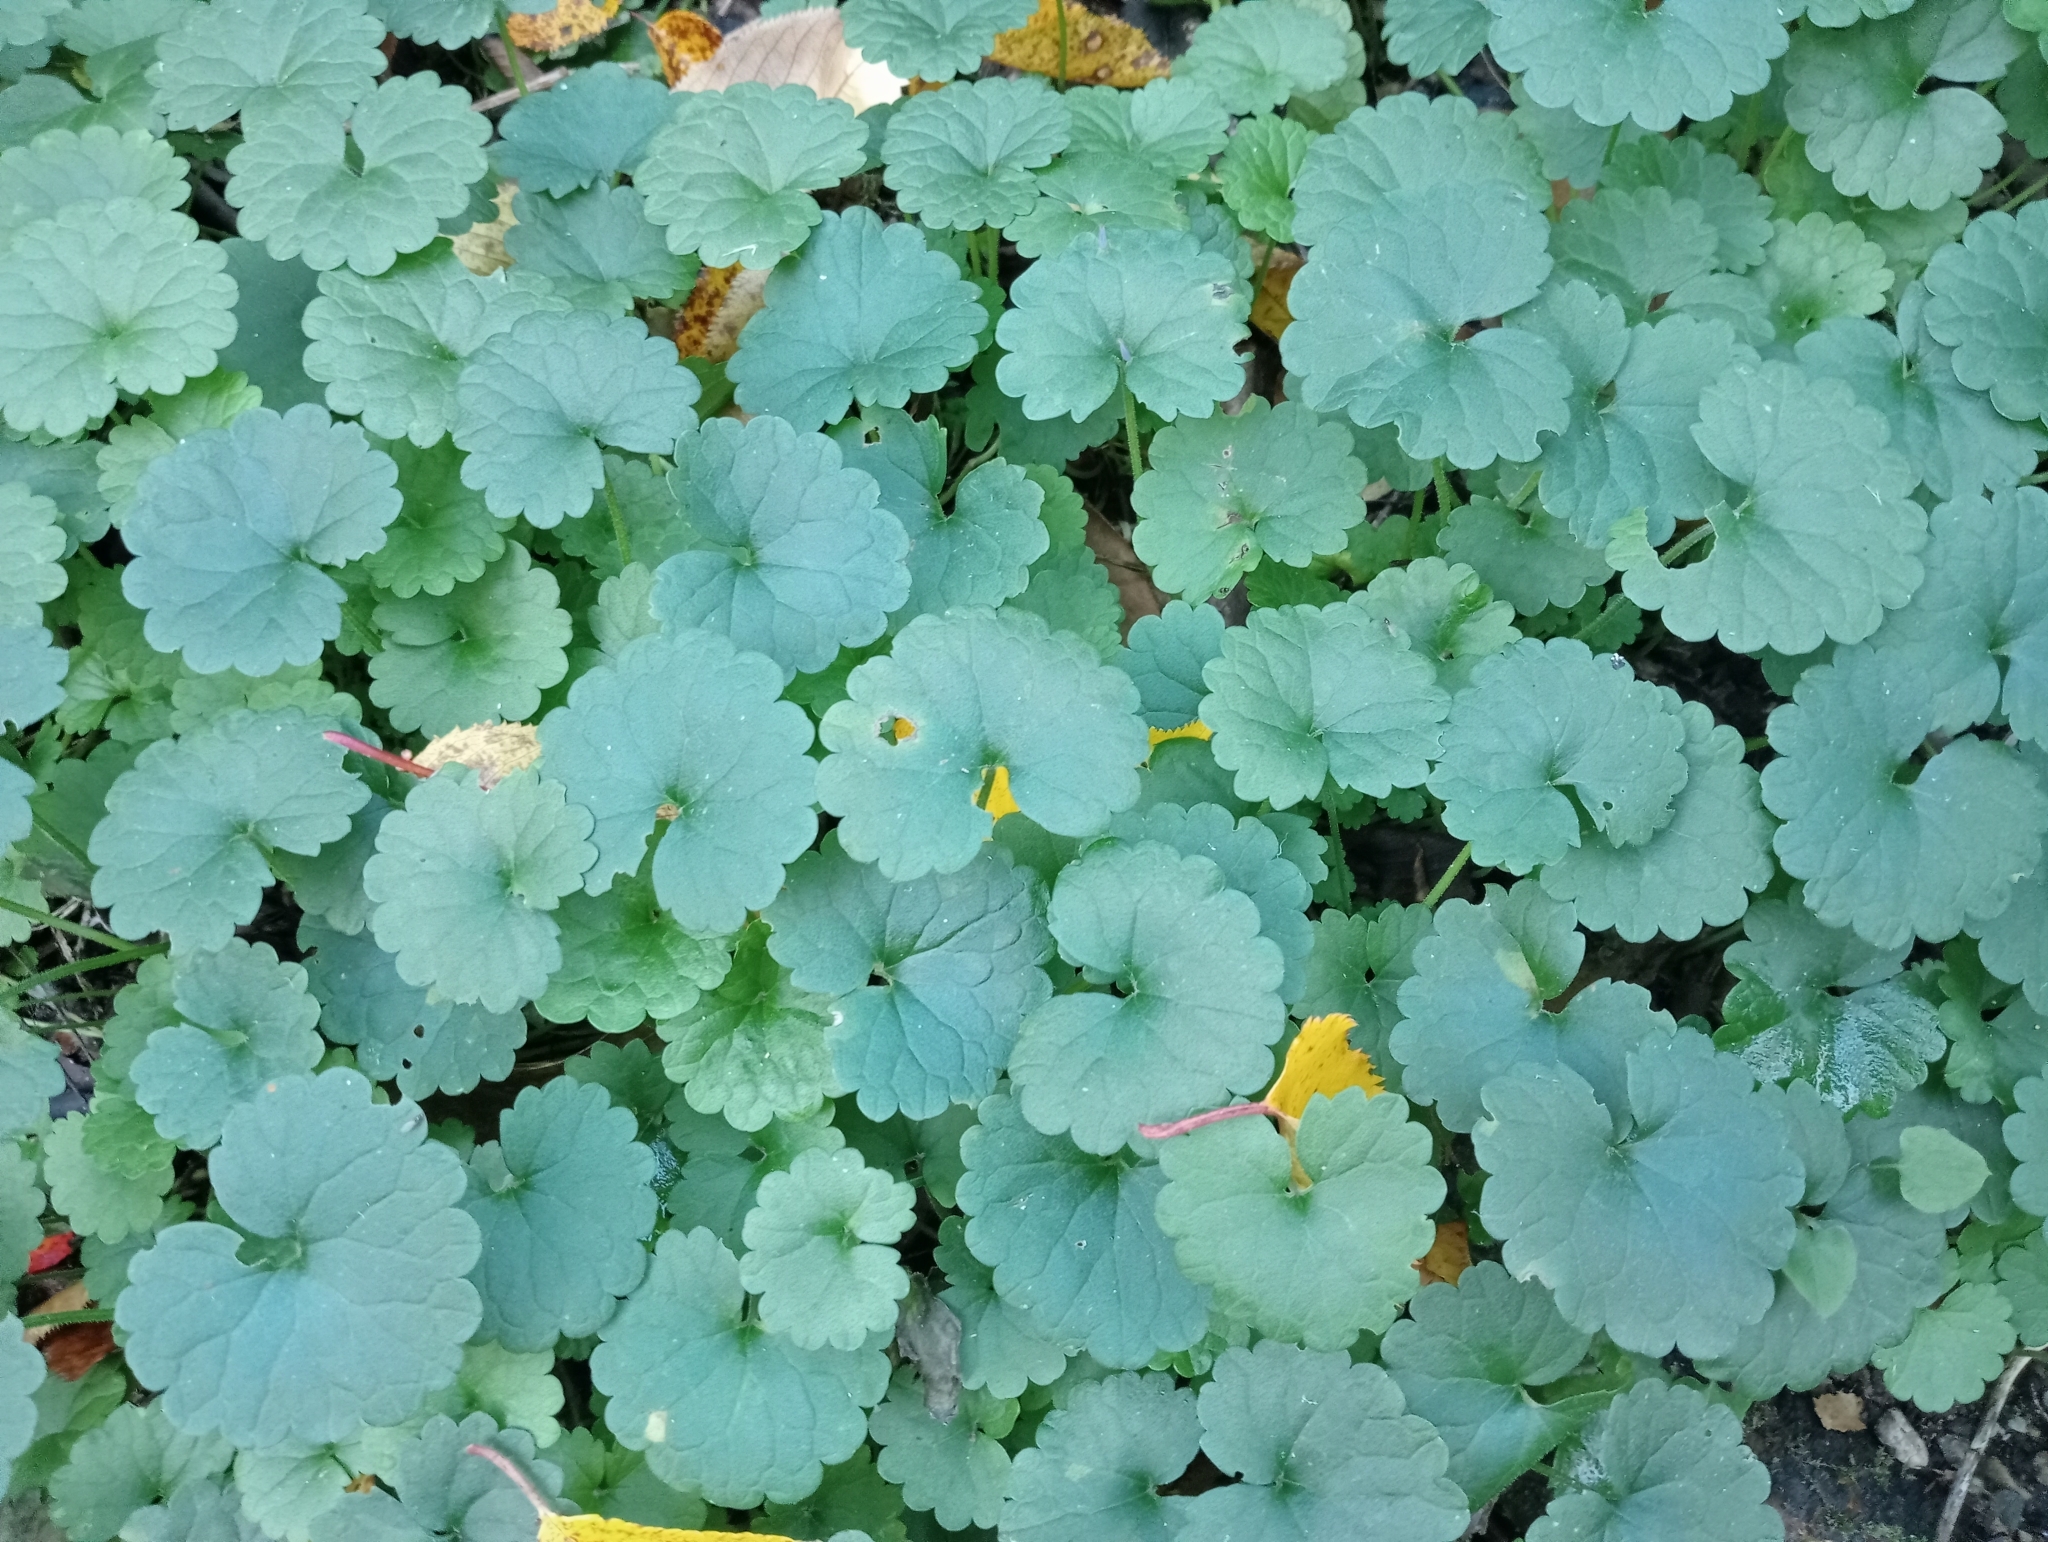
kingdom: Plantae
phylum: Tracheophyta
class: Magnoliopsida
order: Lamiales
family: Lamiaceae
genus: Glechoma
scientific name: Glechoma hederacea
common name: Ground ivy
